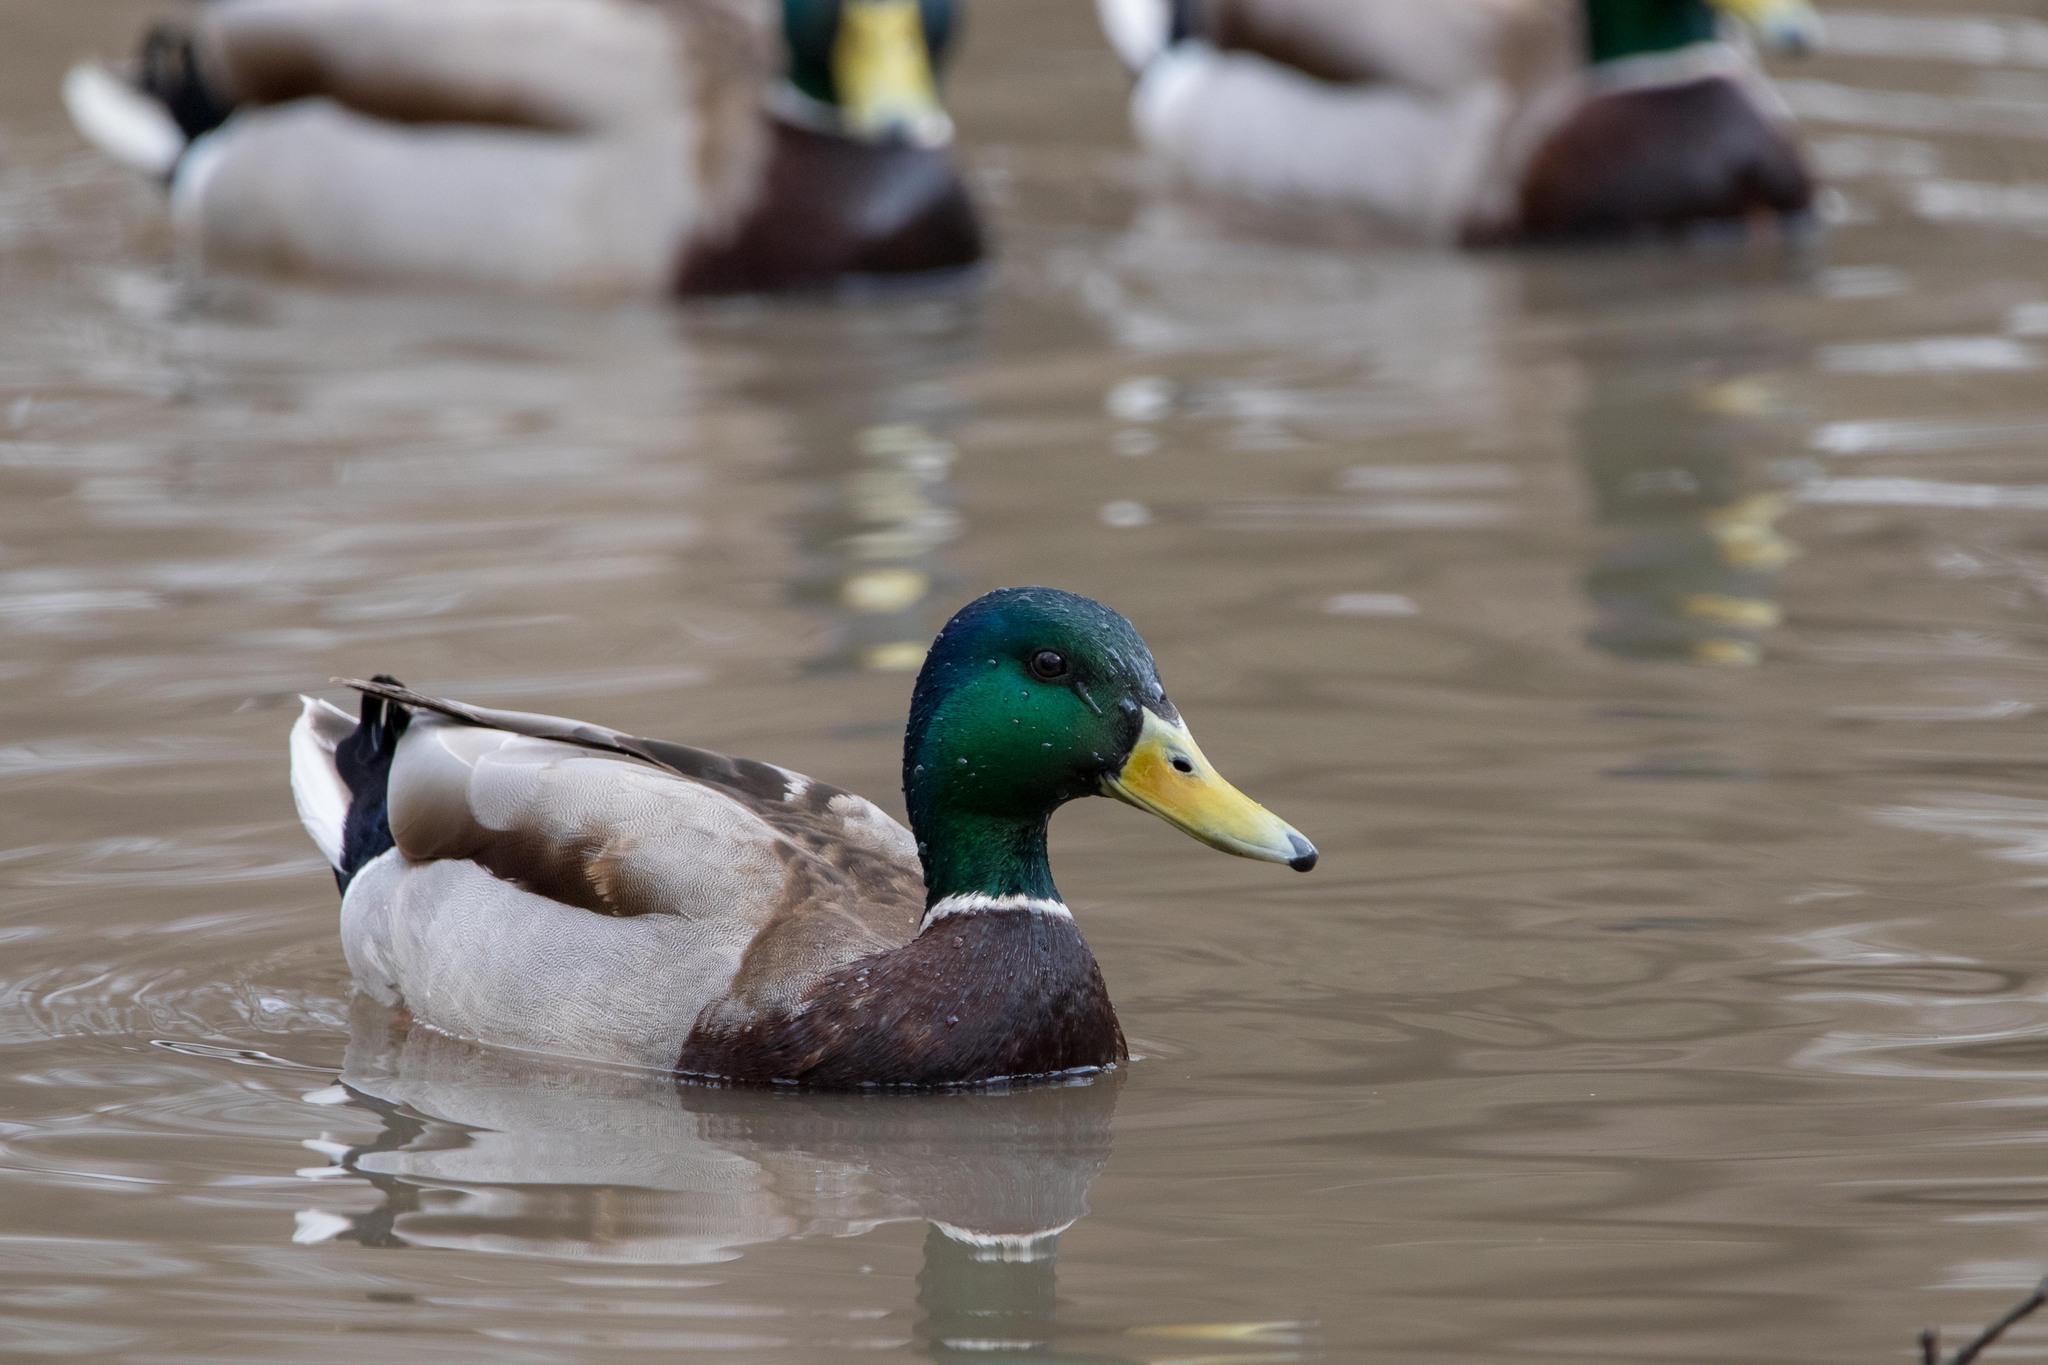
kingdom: Animalia
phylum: Chordata
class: Aves
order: Anseriformes
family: Anatidae
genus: Anas
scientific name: Anas platyrhynchos
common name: Mallard
